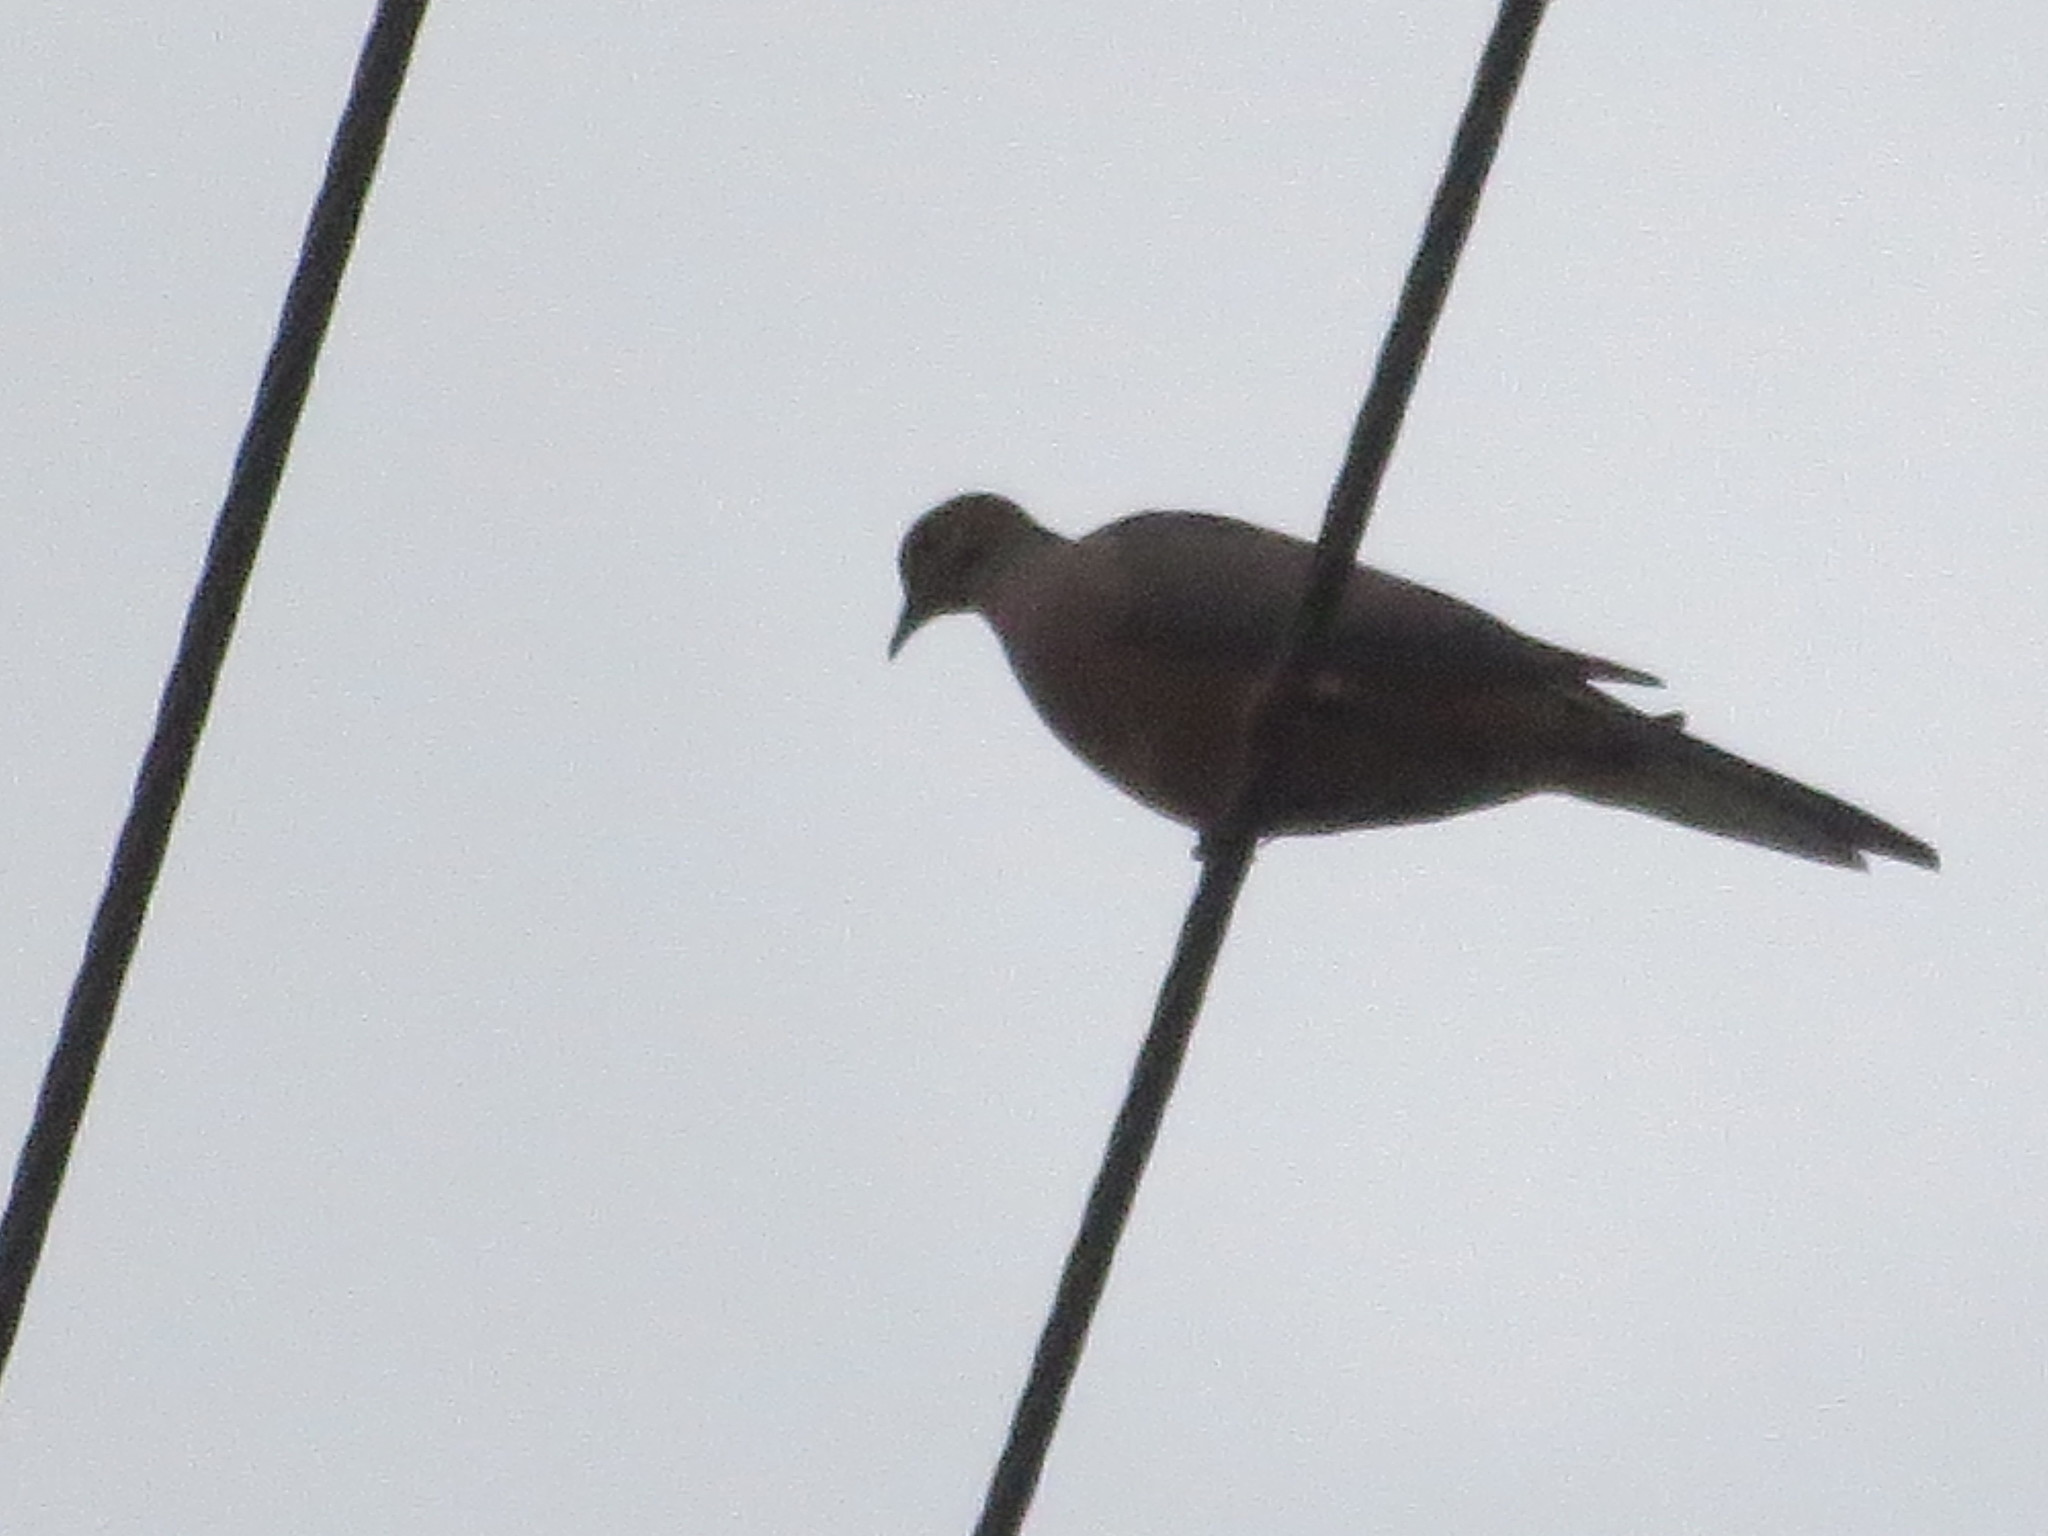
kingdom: Animalia
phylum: Chordata
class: Aves
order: Columbiformes
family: Columbidae
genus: Zenaida
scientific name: Zenaida macroura
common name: Mourning dove
